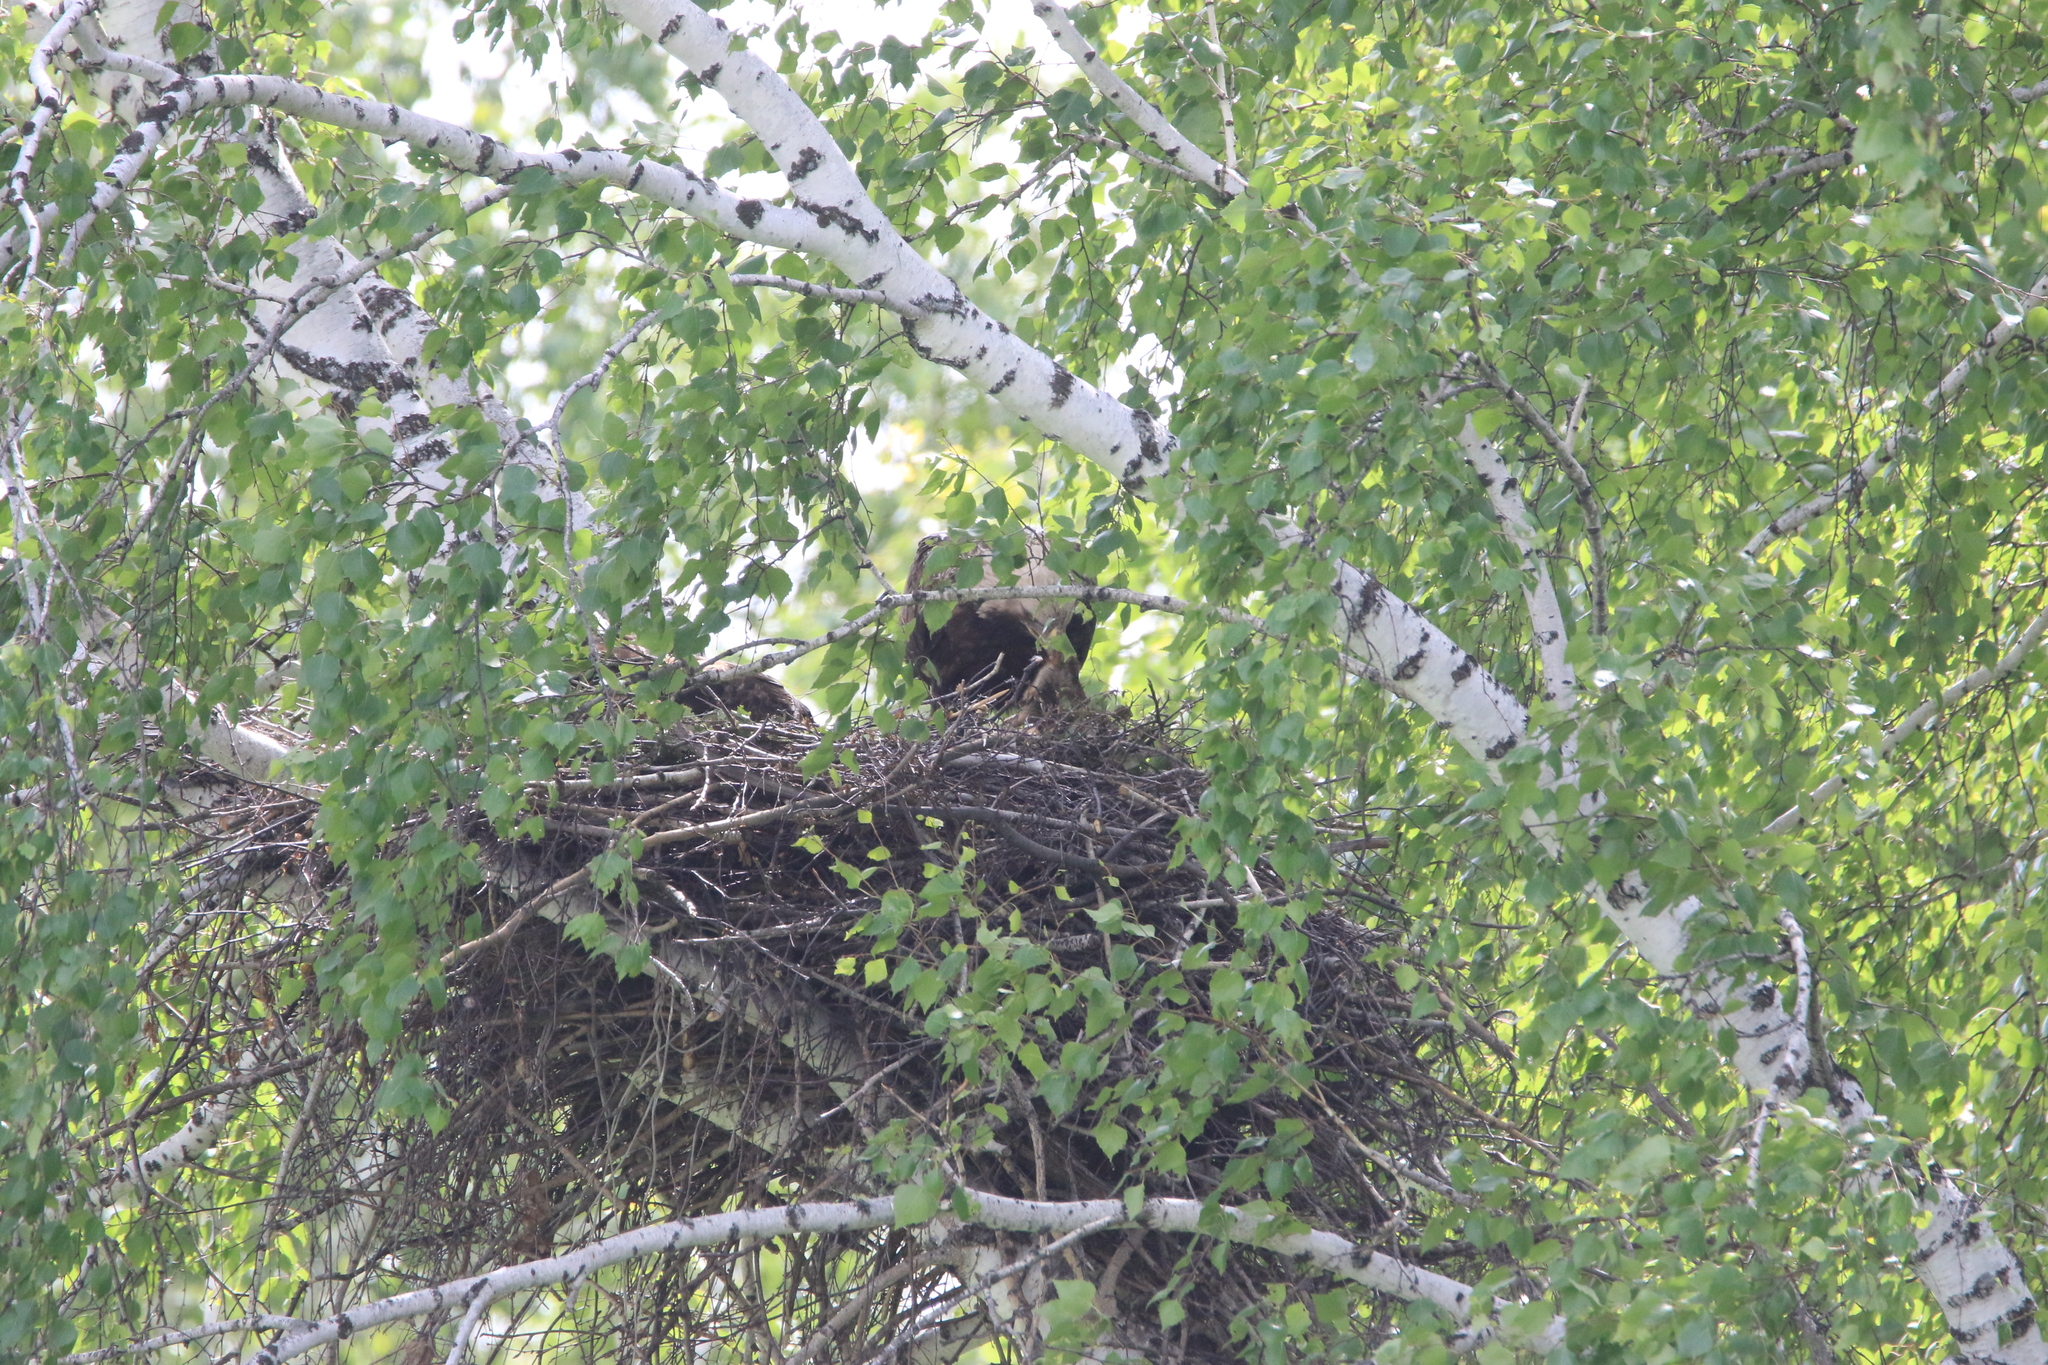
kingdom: Animalia
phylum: Chordata
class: Aves
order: Accipitriformes
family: Accipitridae
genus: Aquila
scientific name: Aquila heliaca
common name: Eastern imperial eagle
